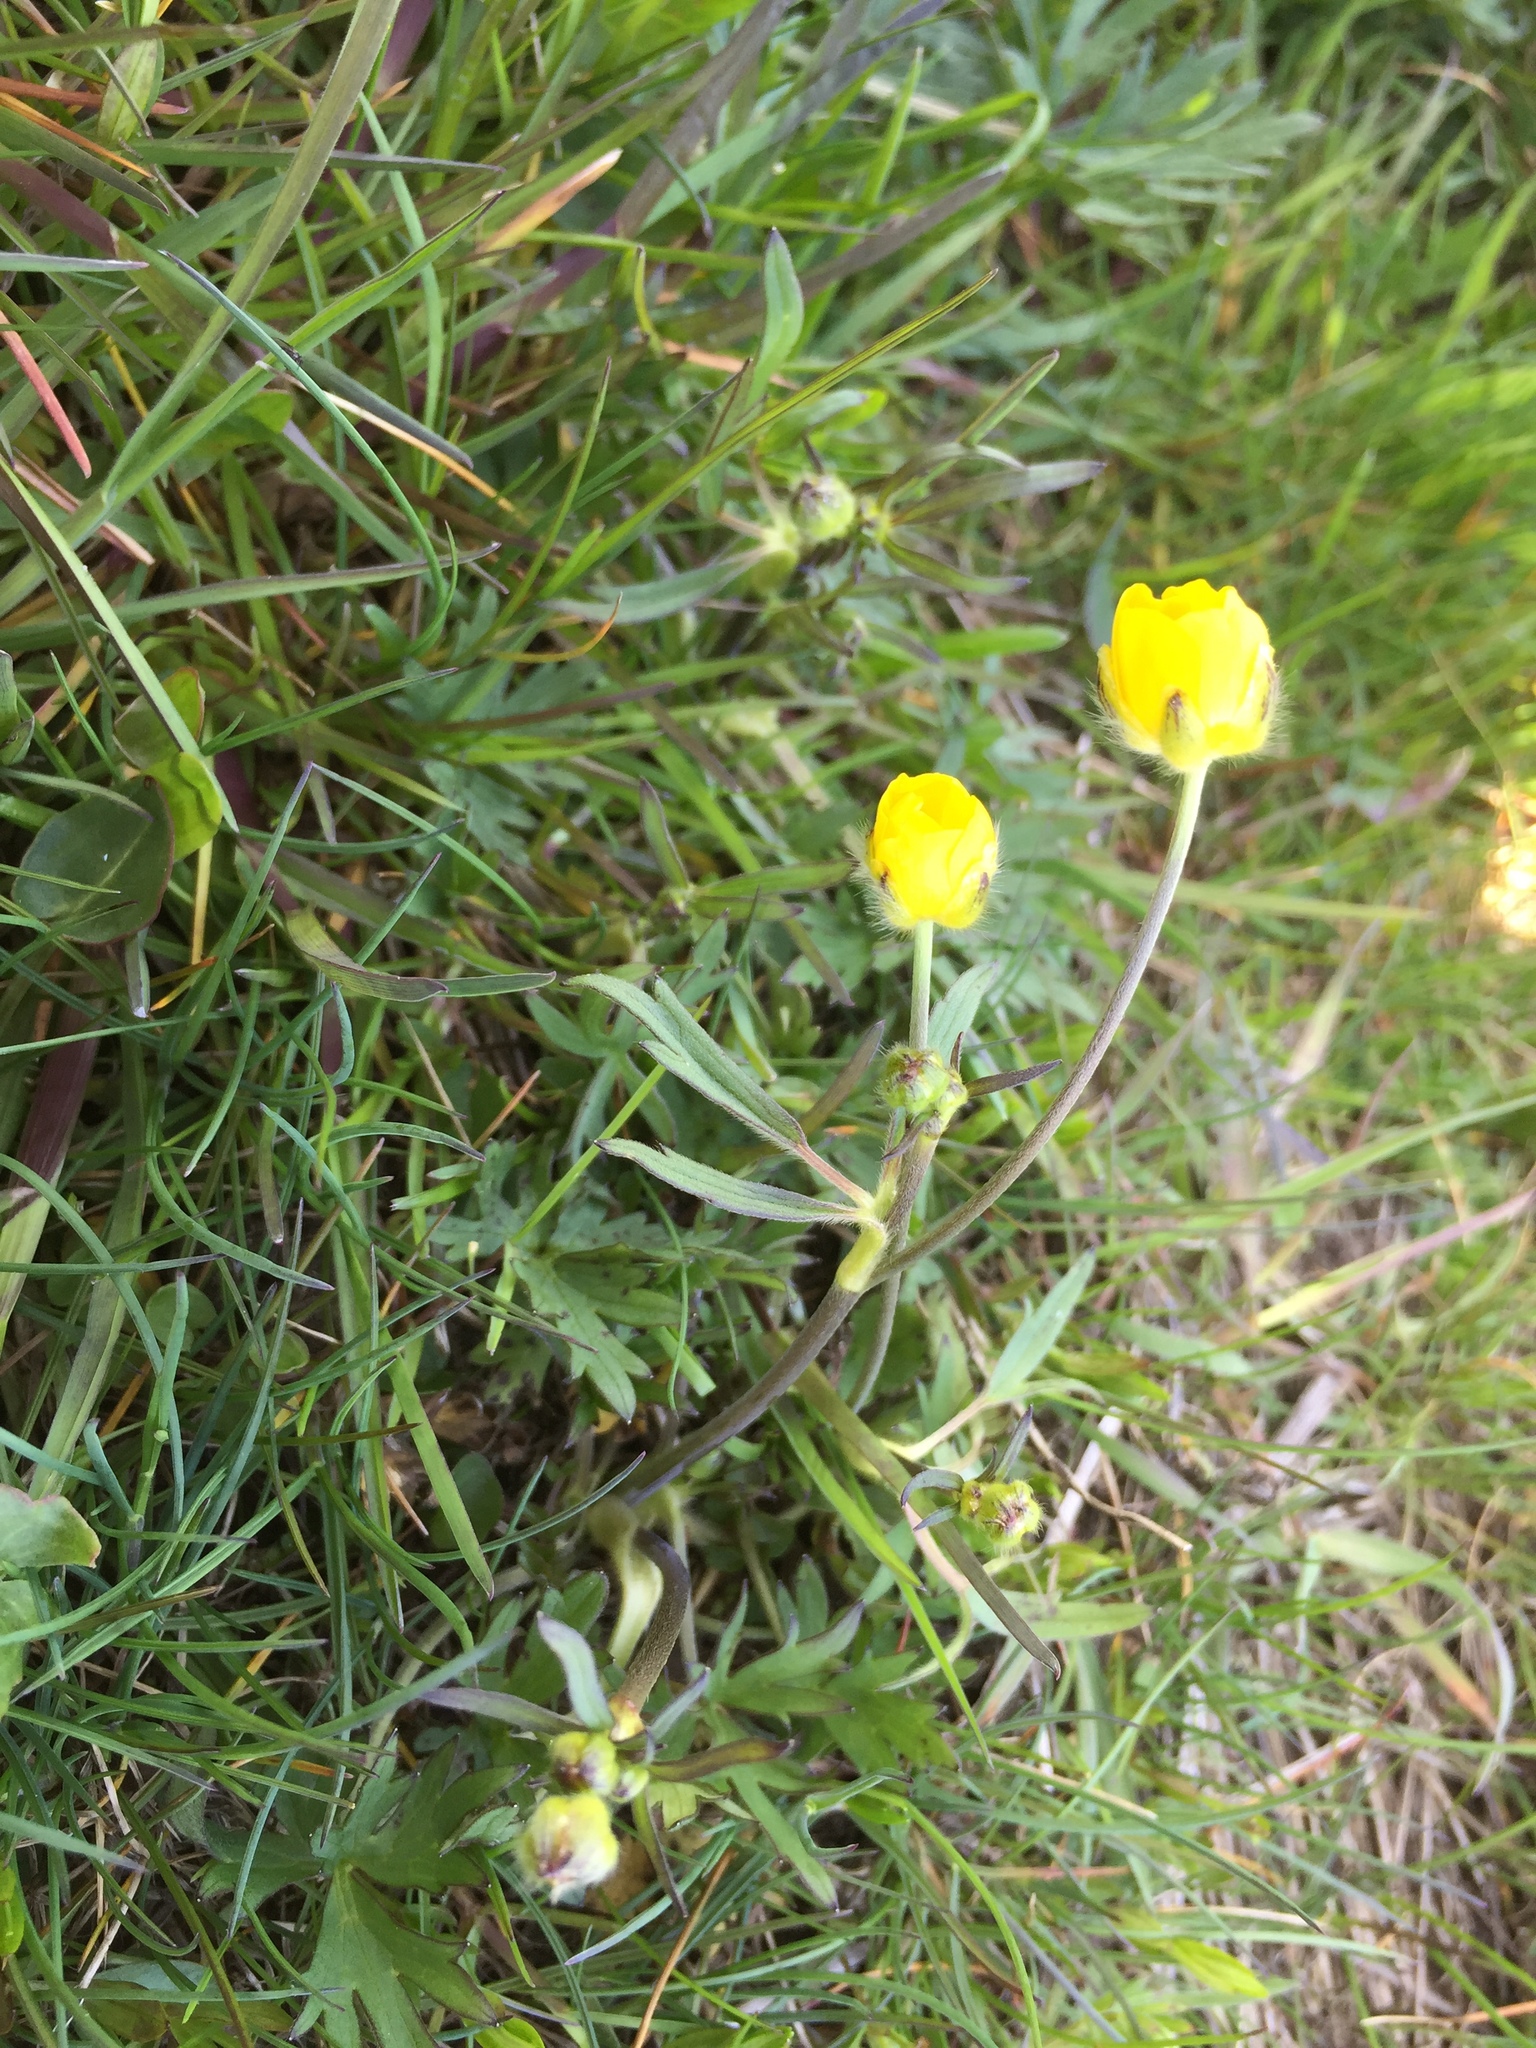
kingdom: Plantae
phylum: Tracheophyta
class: Magnoliopsida
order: Ranunculales
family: Ranunculaceae
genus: Ranunculus
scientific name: Ranunculus acris
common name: Meadow buttercup
